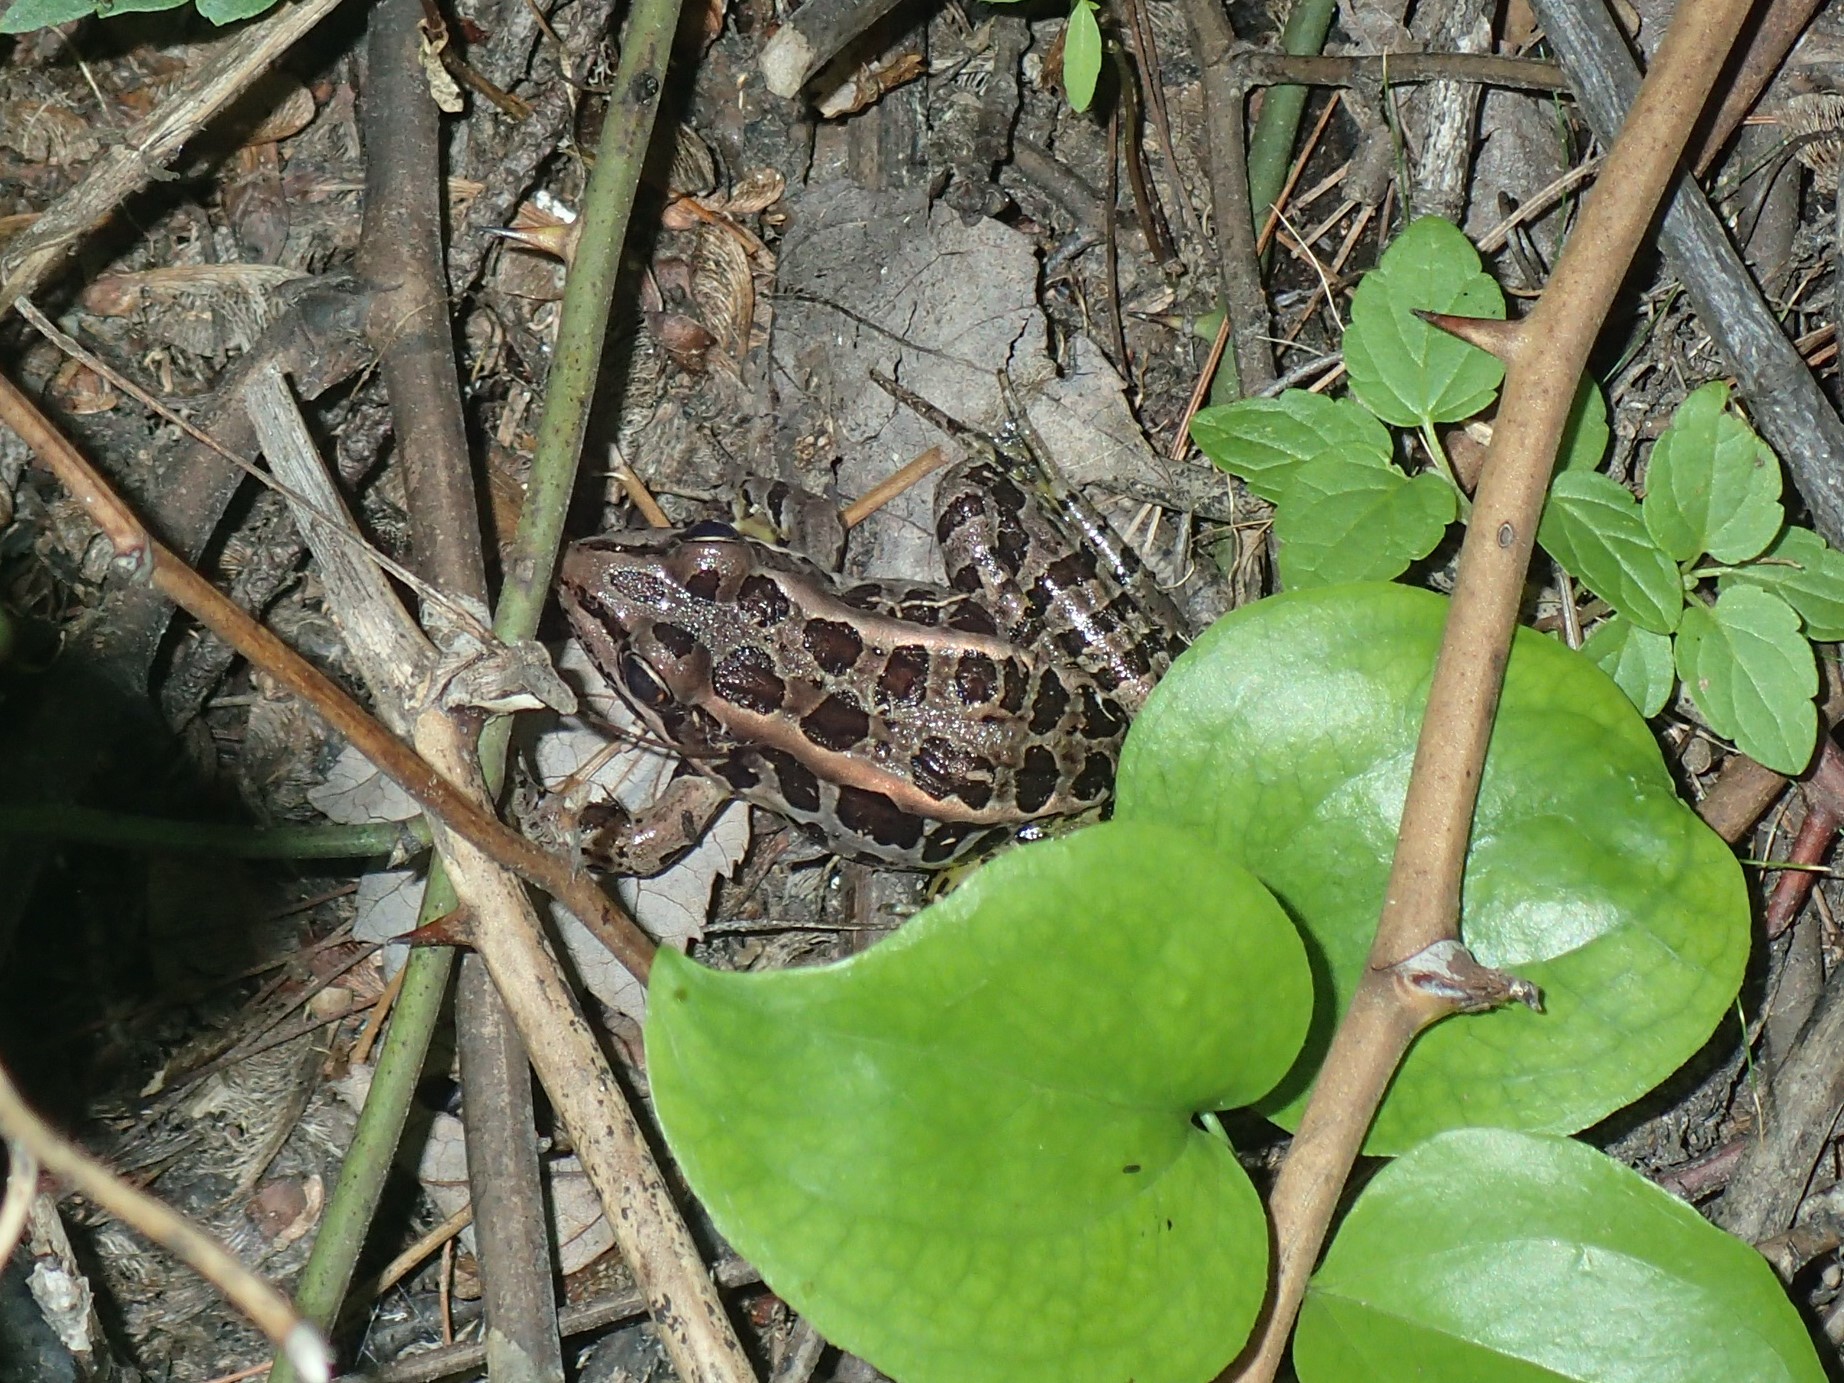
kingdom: Animalia
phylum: Chordata
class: Amphibia
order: Anura
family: Ranidae
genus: Lithobates
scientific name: Lithobates palustris
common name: Pickerel frog
